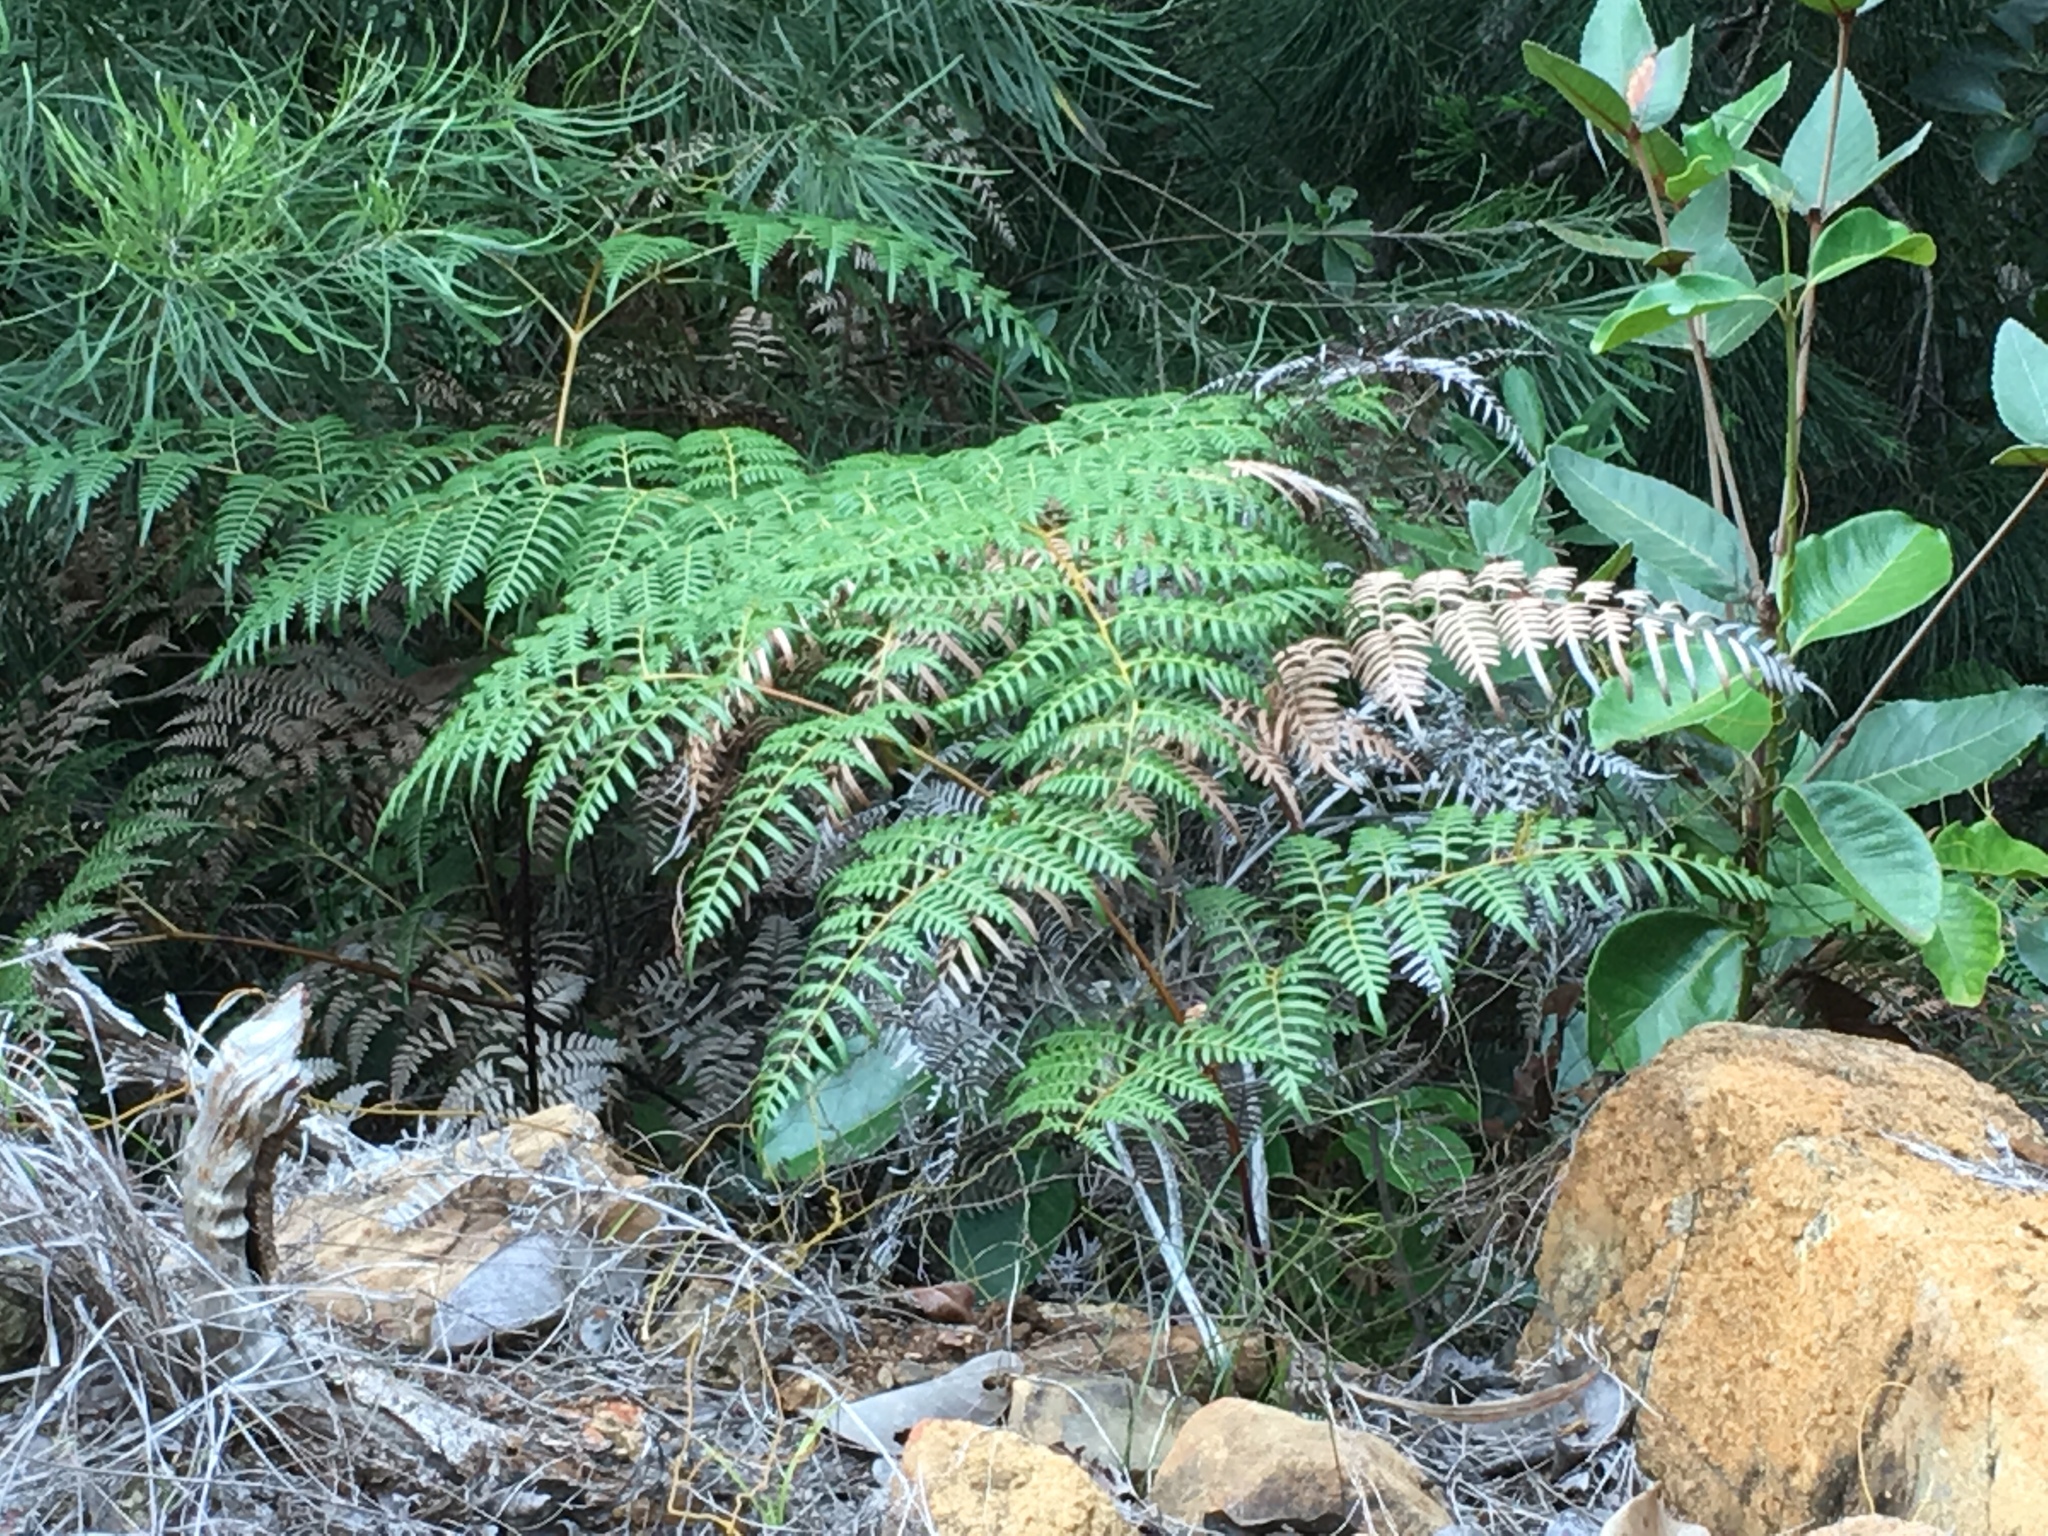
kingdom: Plantae
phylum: Tracheophyta
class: Polypodiopsida
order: Polypodiales
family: Dennstaedtiaceae
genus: Pteridium
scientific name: Pteridium esculentum
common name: Bracken fern
